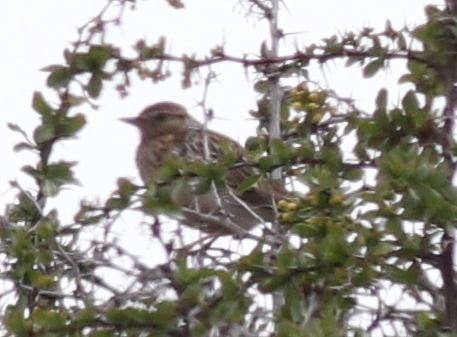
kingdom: Animalia
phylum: Chordata
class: Aves
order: Passeriformes
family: Alaudidae
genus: Lullula
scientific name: Lullula arborea
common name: Woodlark
